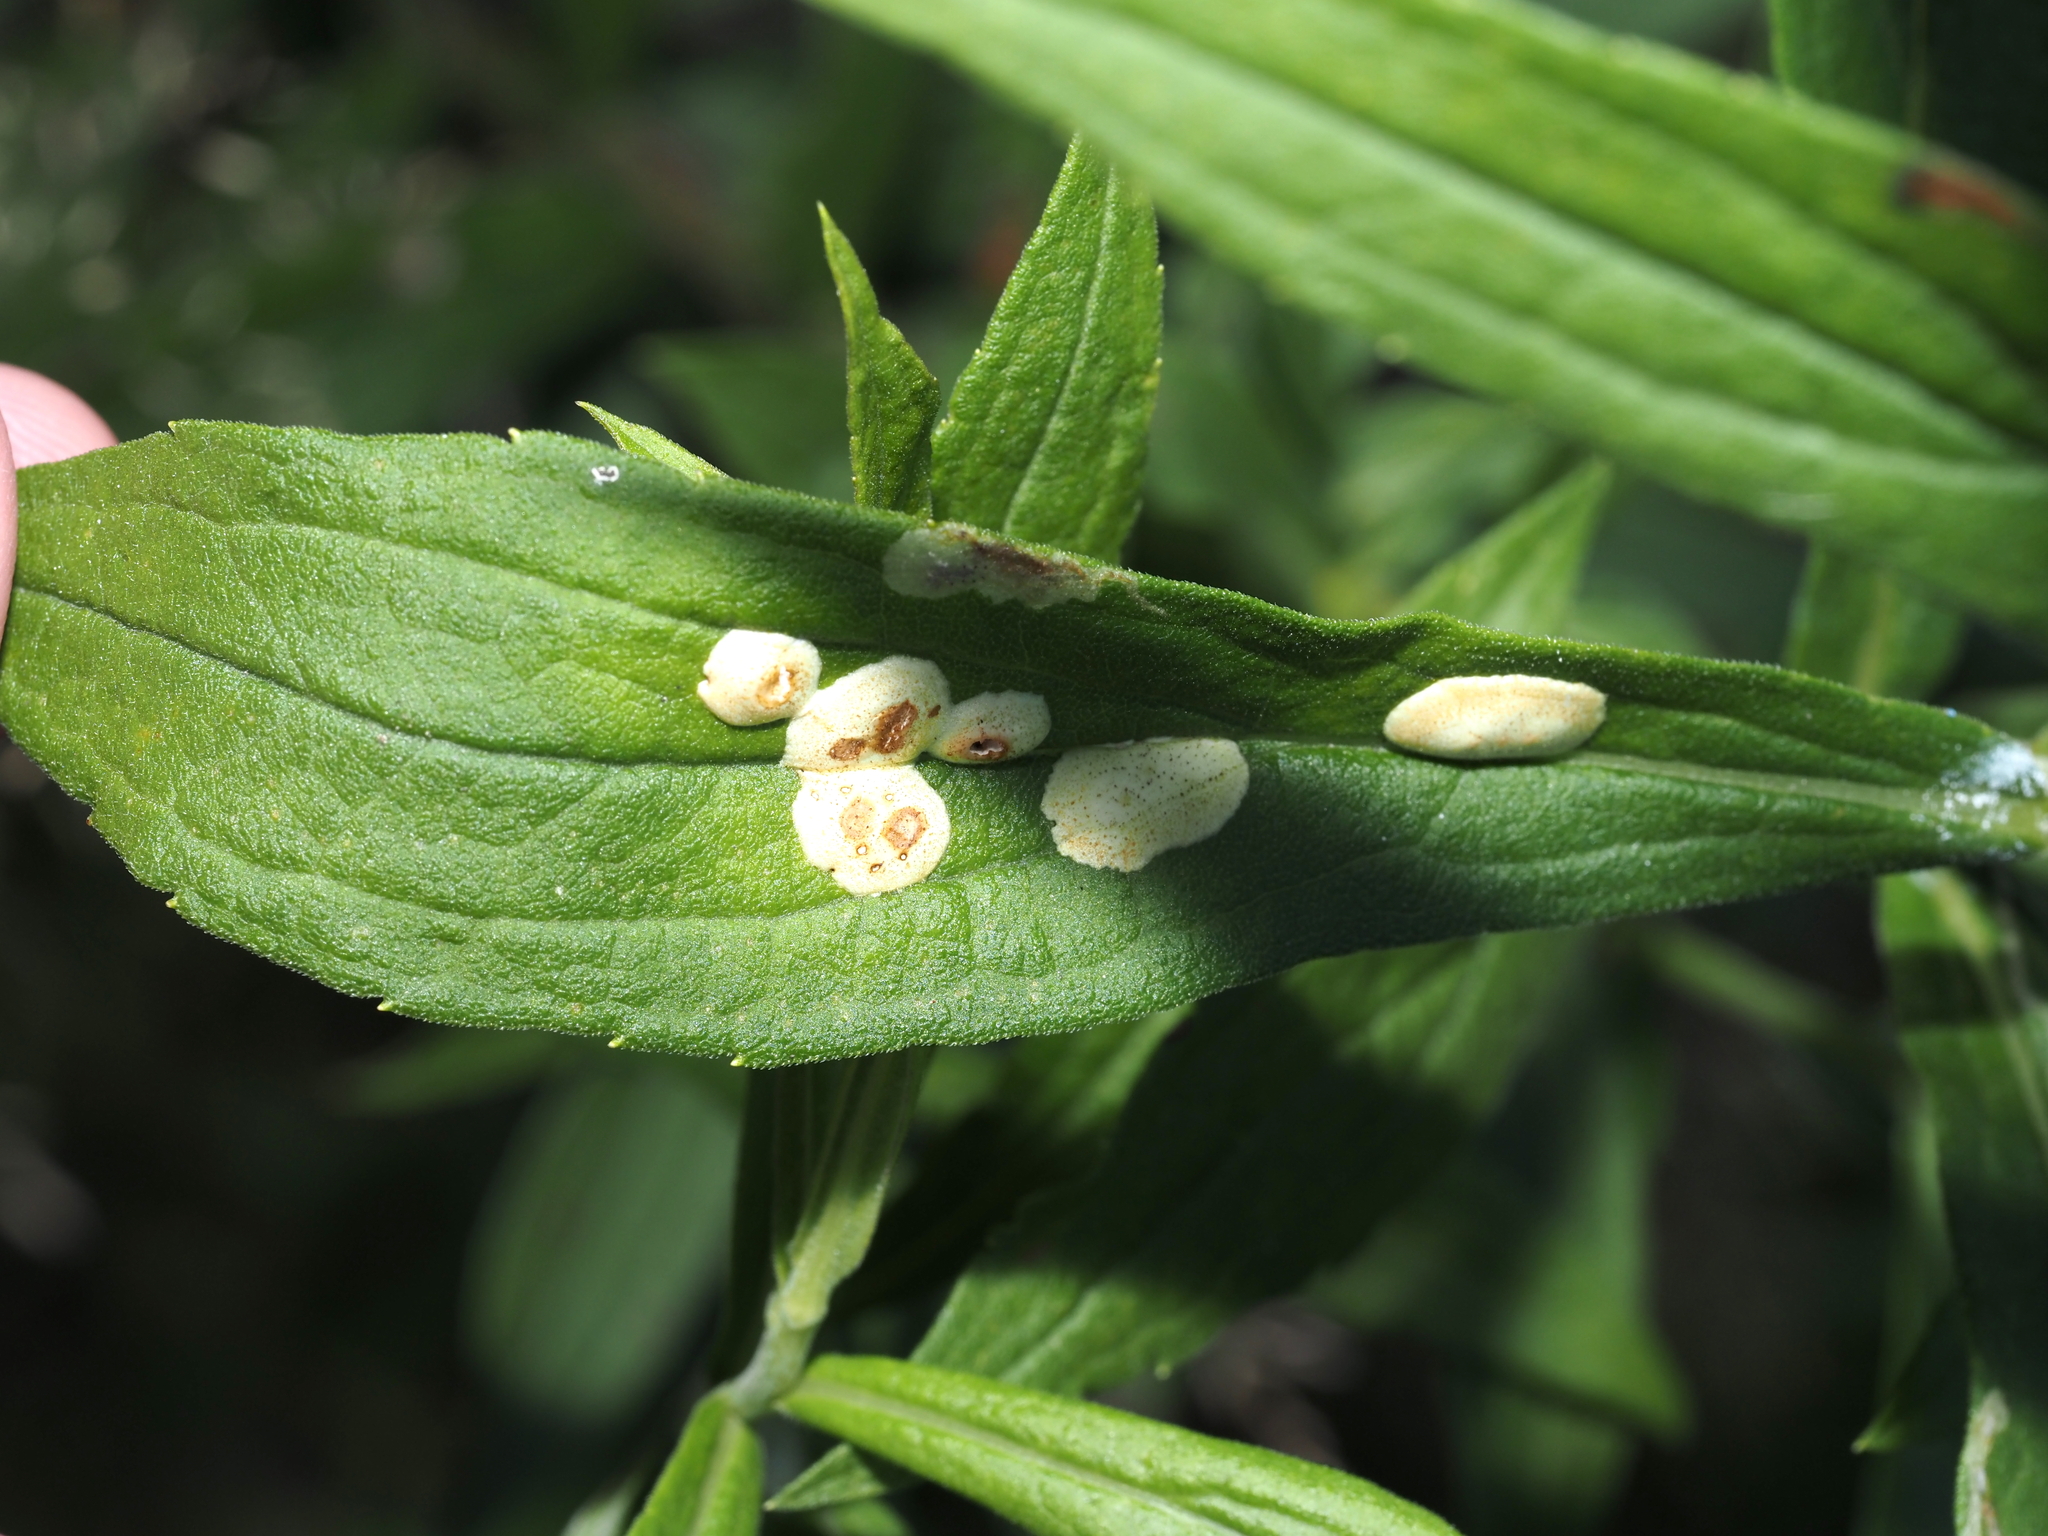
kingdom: Animalia
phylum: Arthropoda
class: Insecta
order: Diptera
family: Cecidomyiidae
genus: Asteromyia
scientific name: Asteromyia carbonifera
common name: Carbonifera goldenrod gall midge
